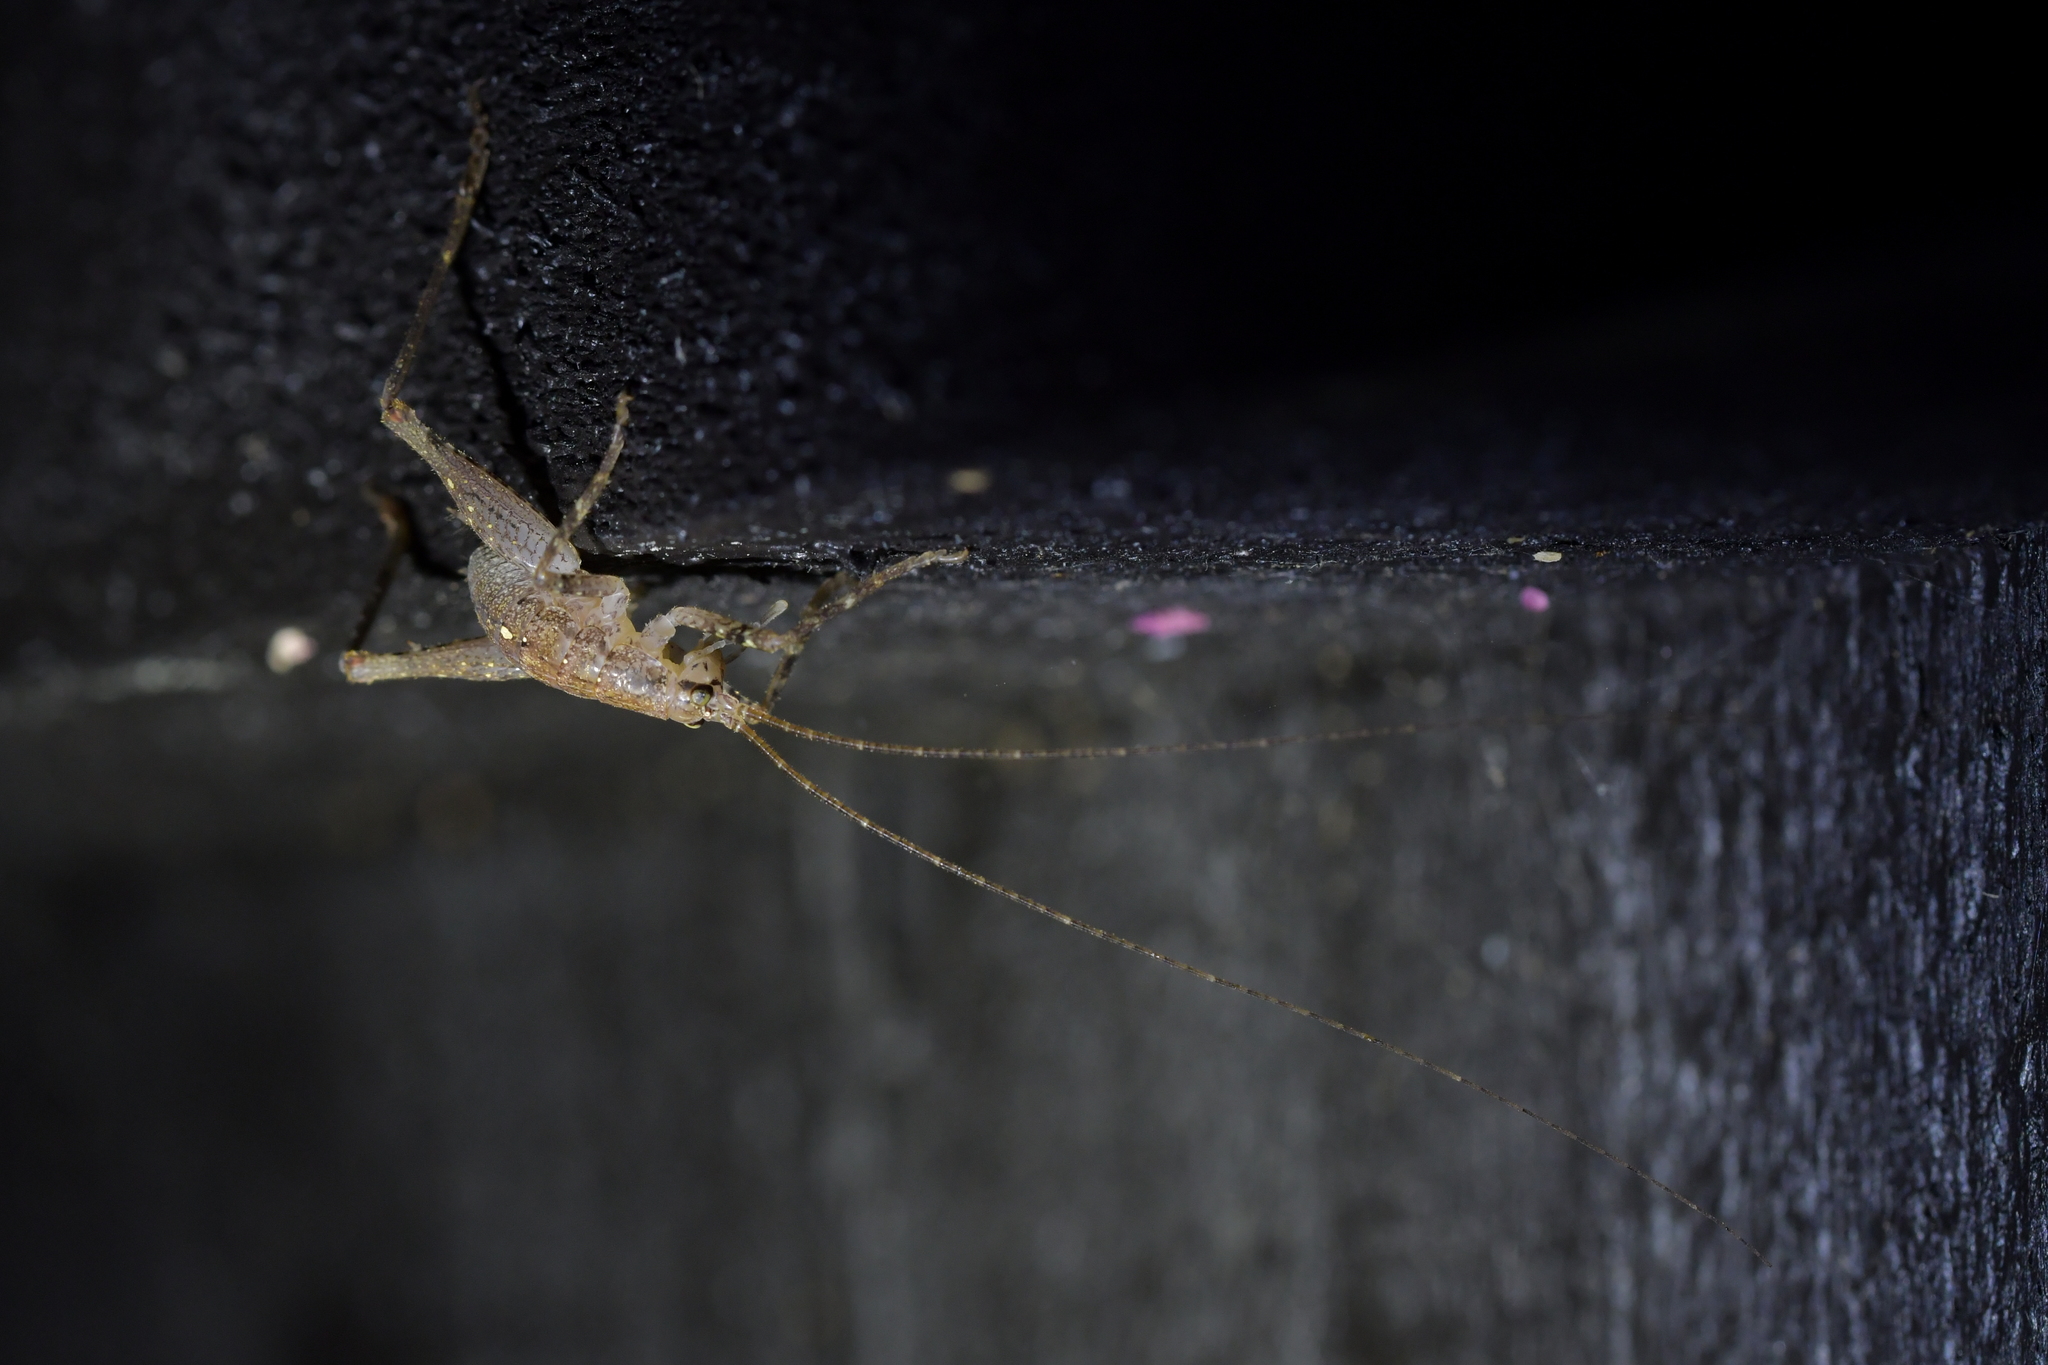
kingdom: Animalia
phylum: Arthropoda
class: Insecta
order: Orthoptera
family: Rhaphidophoridae
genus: Isoplectron
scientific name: Isoplectron armatum
